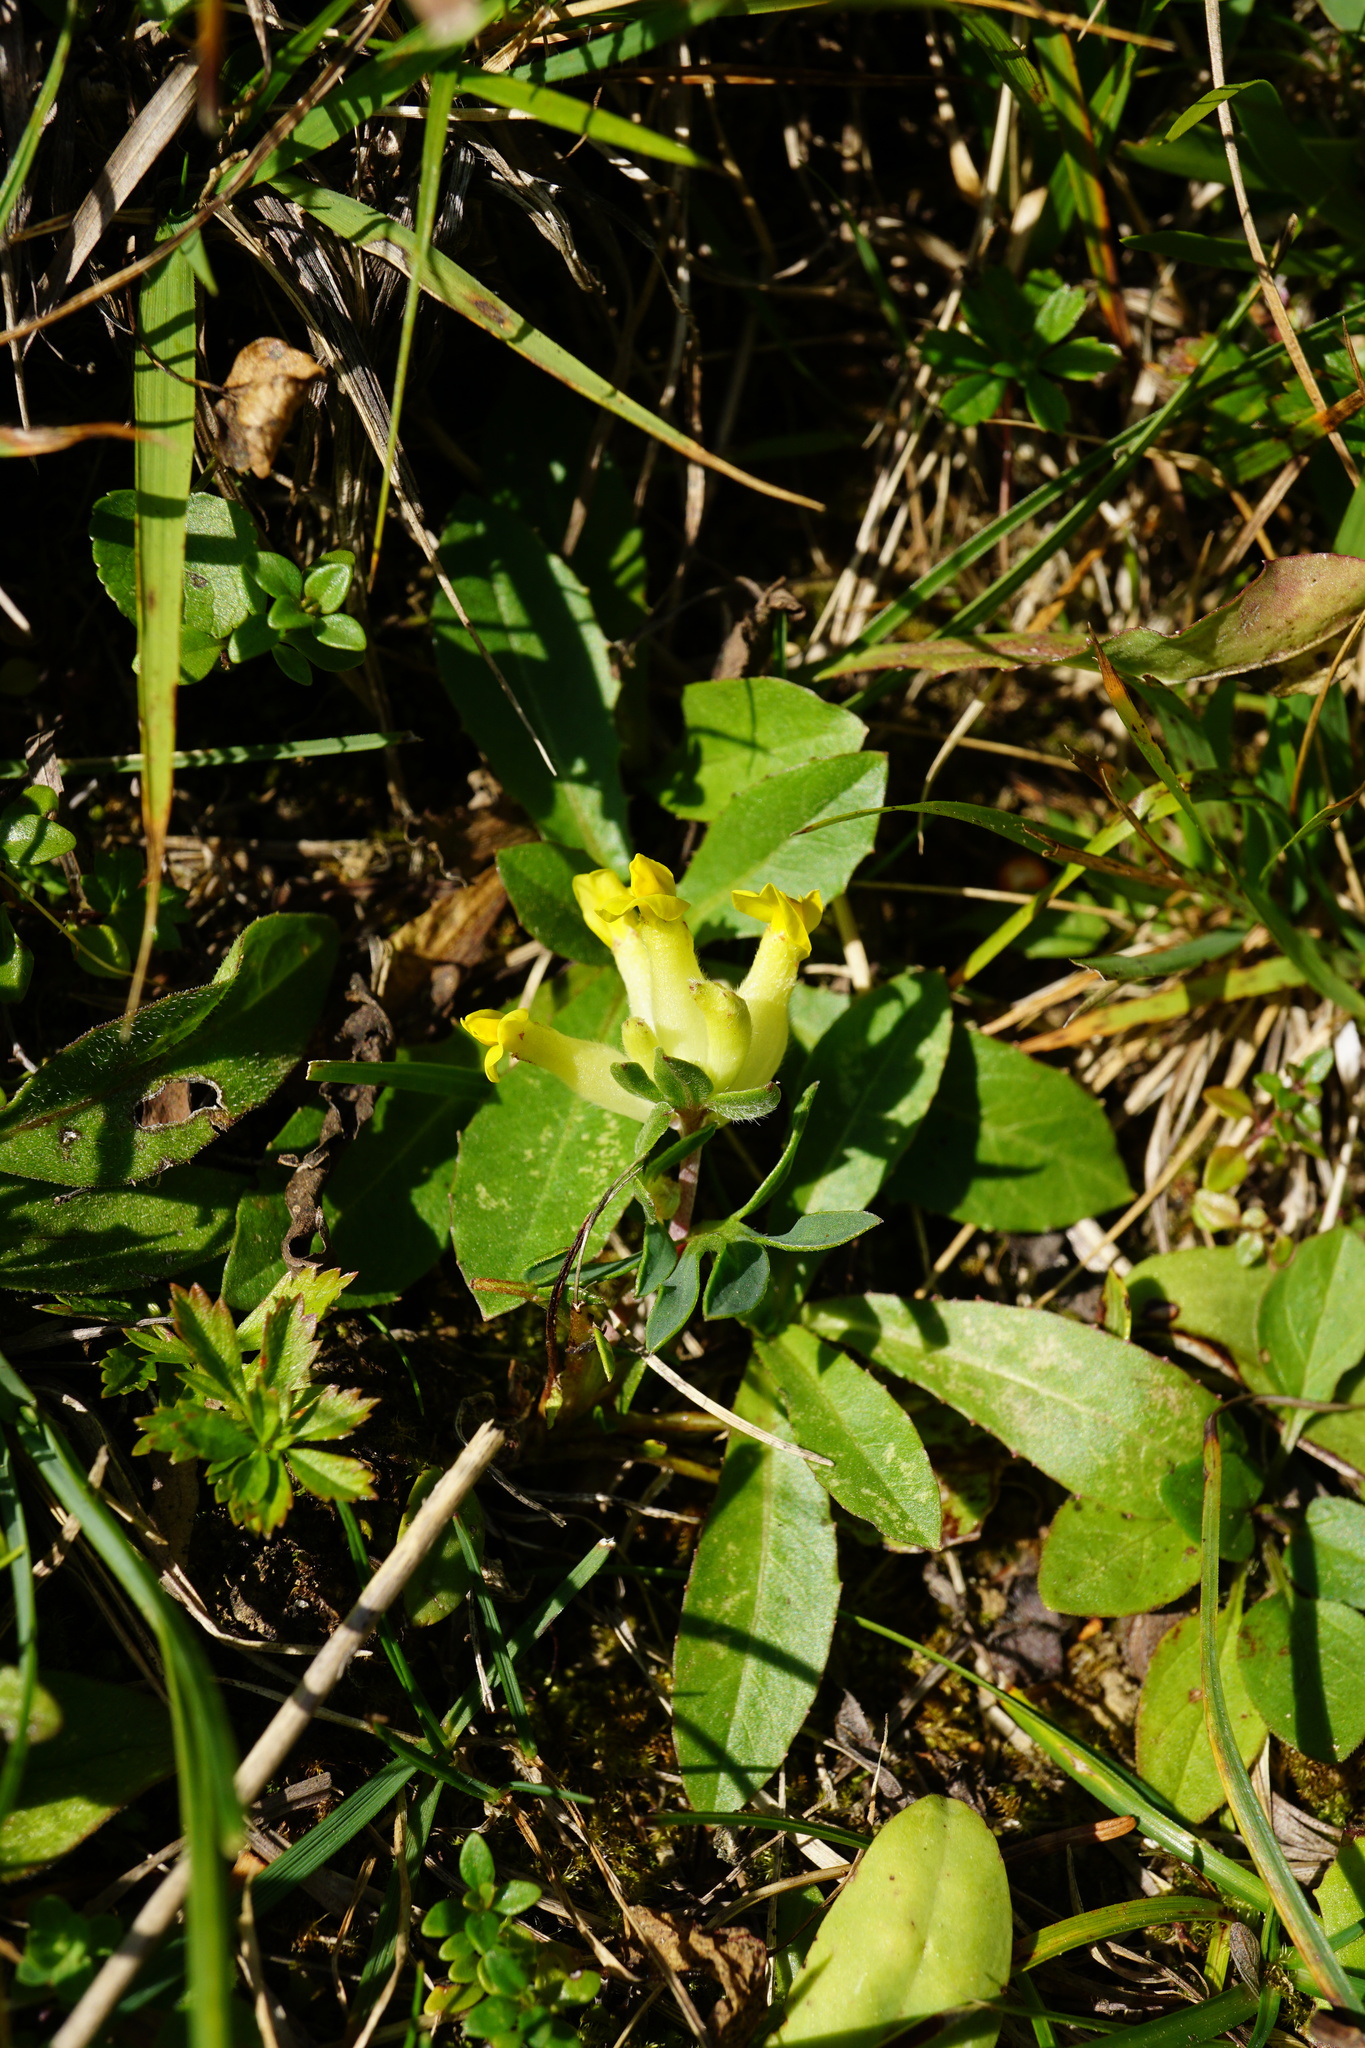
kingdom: Plantae
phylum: Tracheophyta
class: Magnoliopsida
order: Fabales
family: Fabaceae
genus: Anthyllis
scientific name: Anthyllis vulneraria
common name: Kidney vetch
